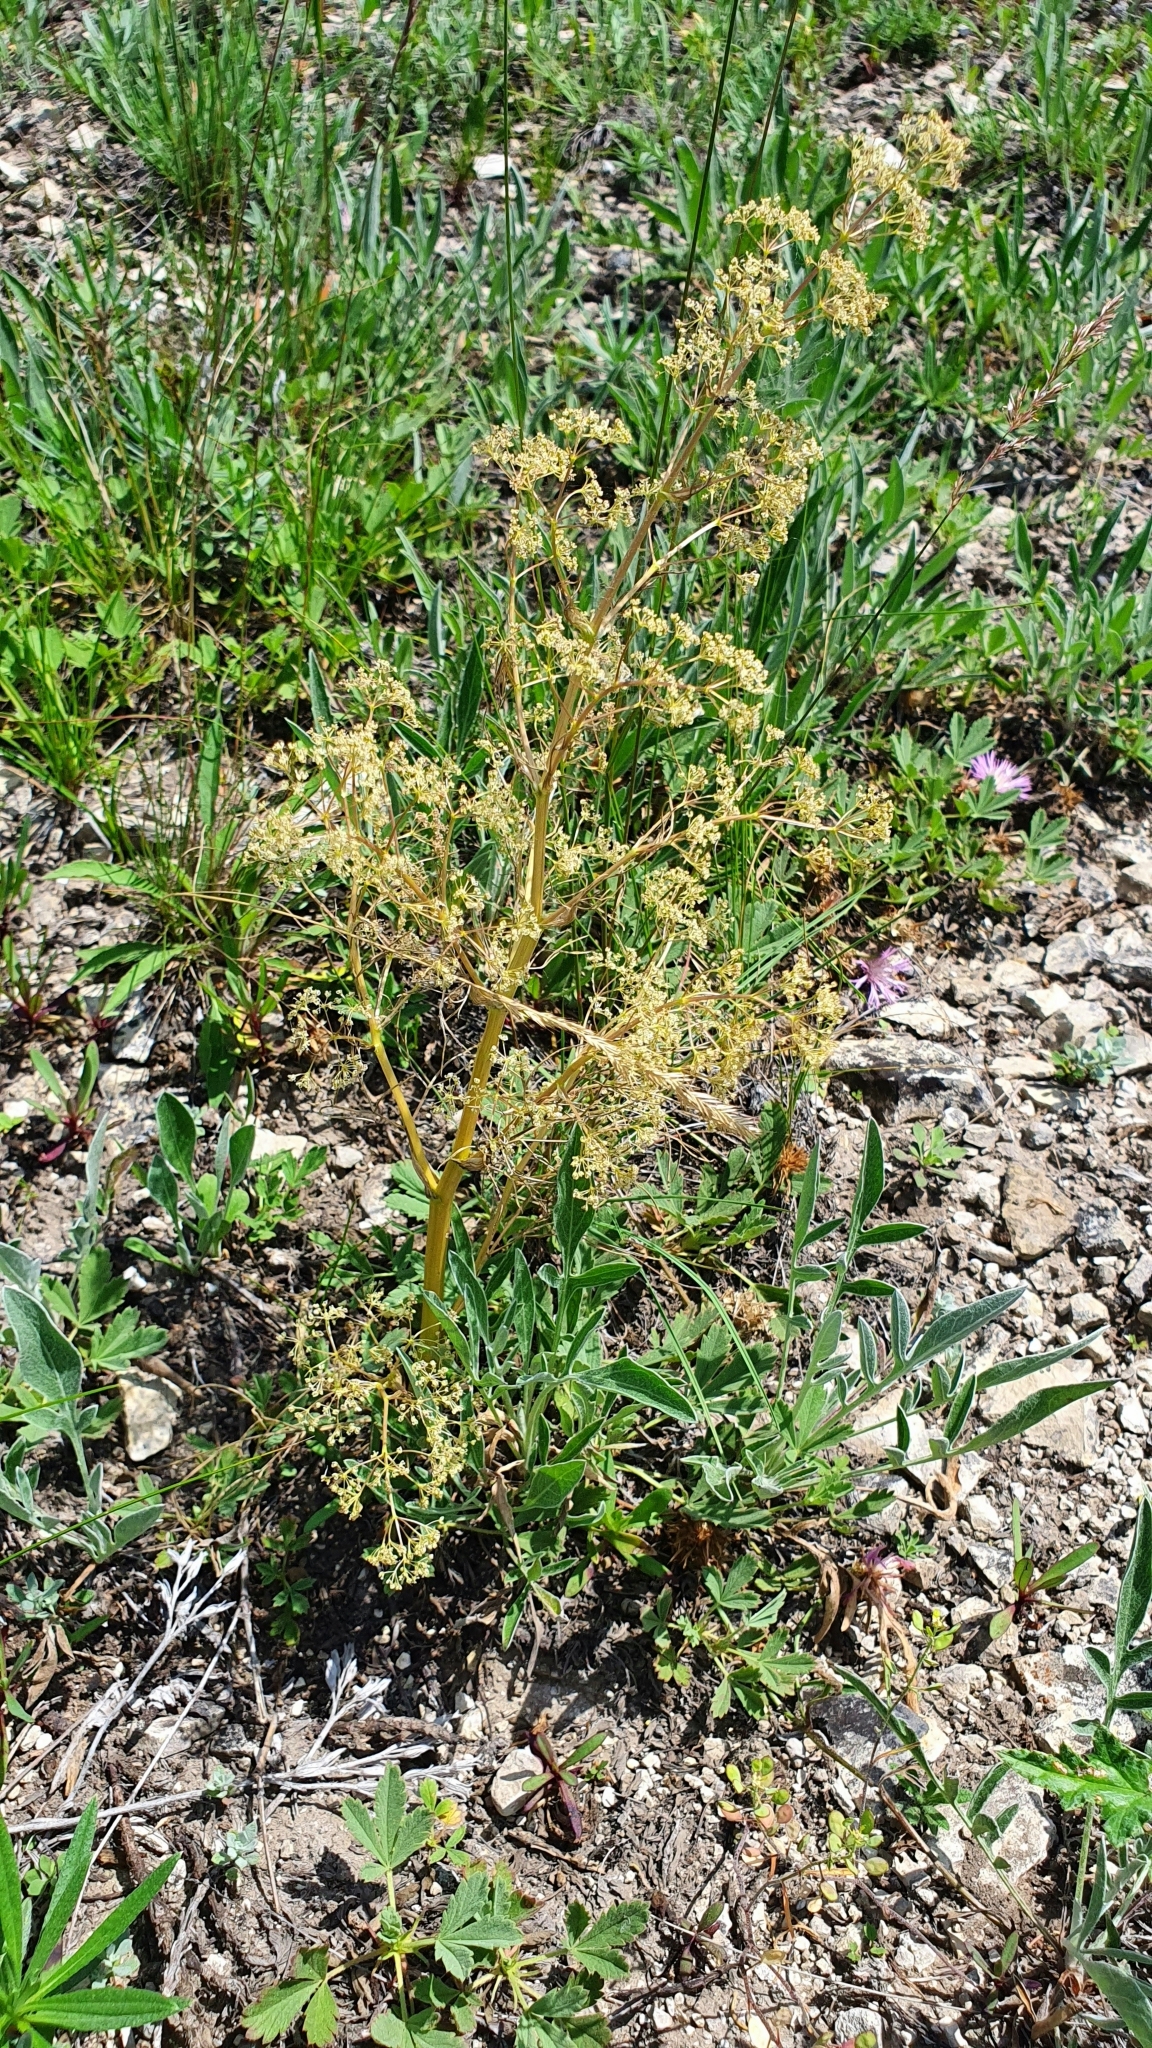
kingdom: Plantae
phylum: Tracheophyta
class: Magnoliopsida
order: Apiales
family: Apiaceae
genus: Trinia
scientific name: Trinia multicaulis
